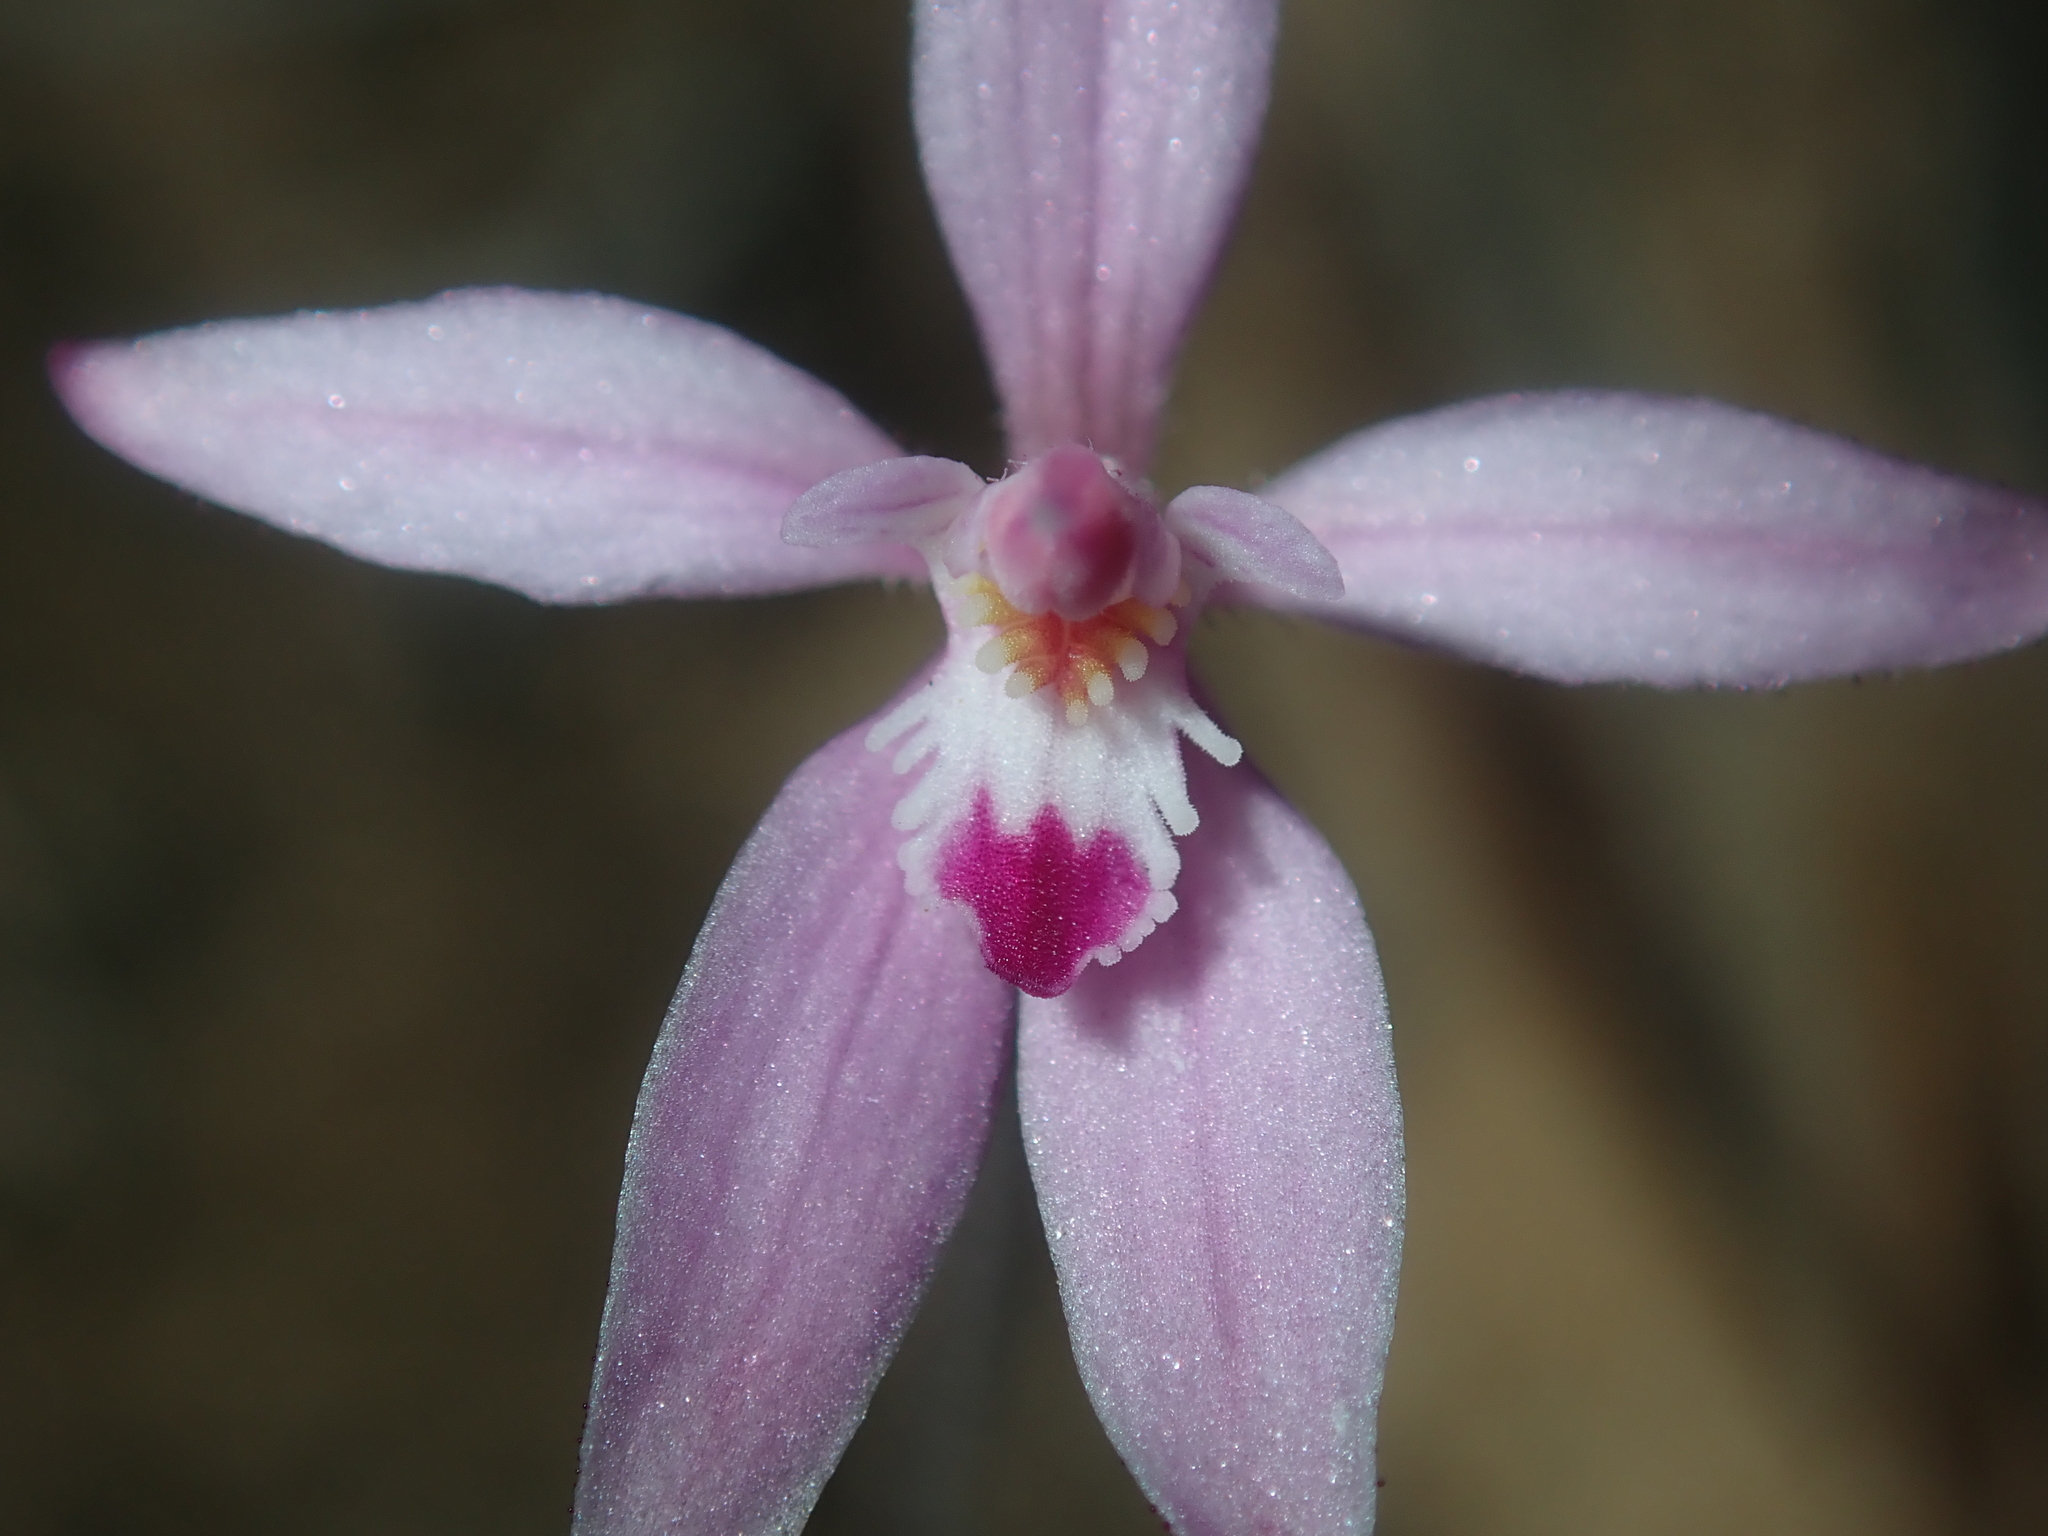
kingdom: Plantae
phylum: Tracheophyta
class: Liliopsida
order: Asparagales
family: Orchidaceae
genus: Caladenia
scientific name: Caladenia reptans
